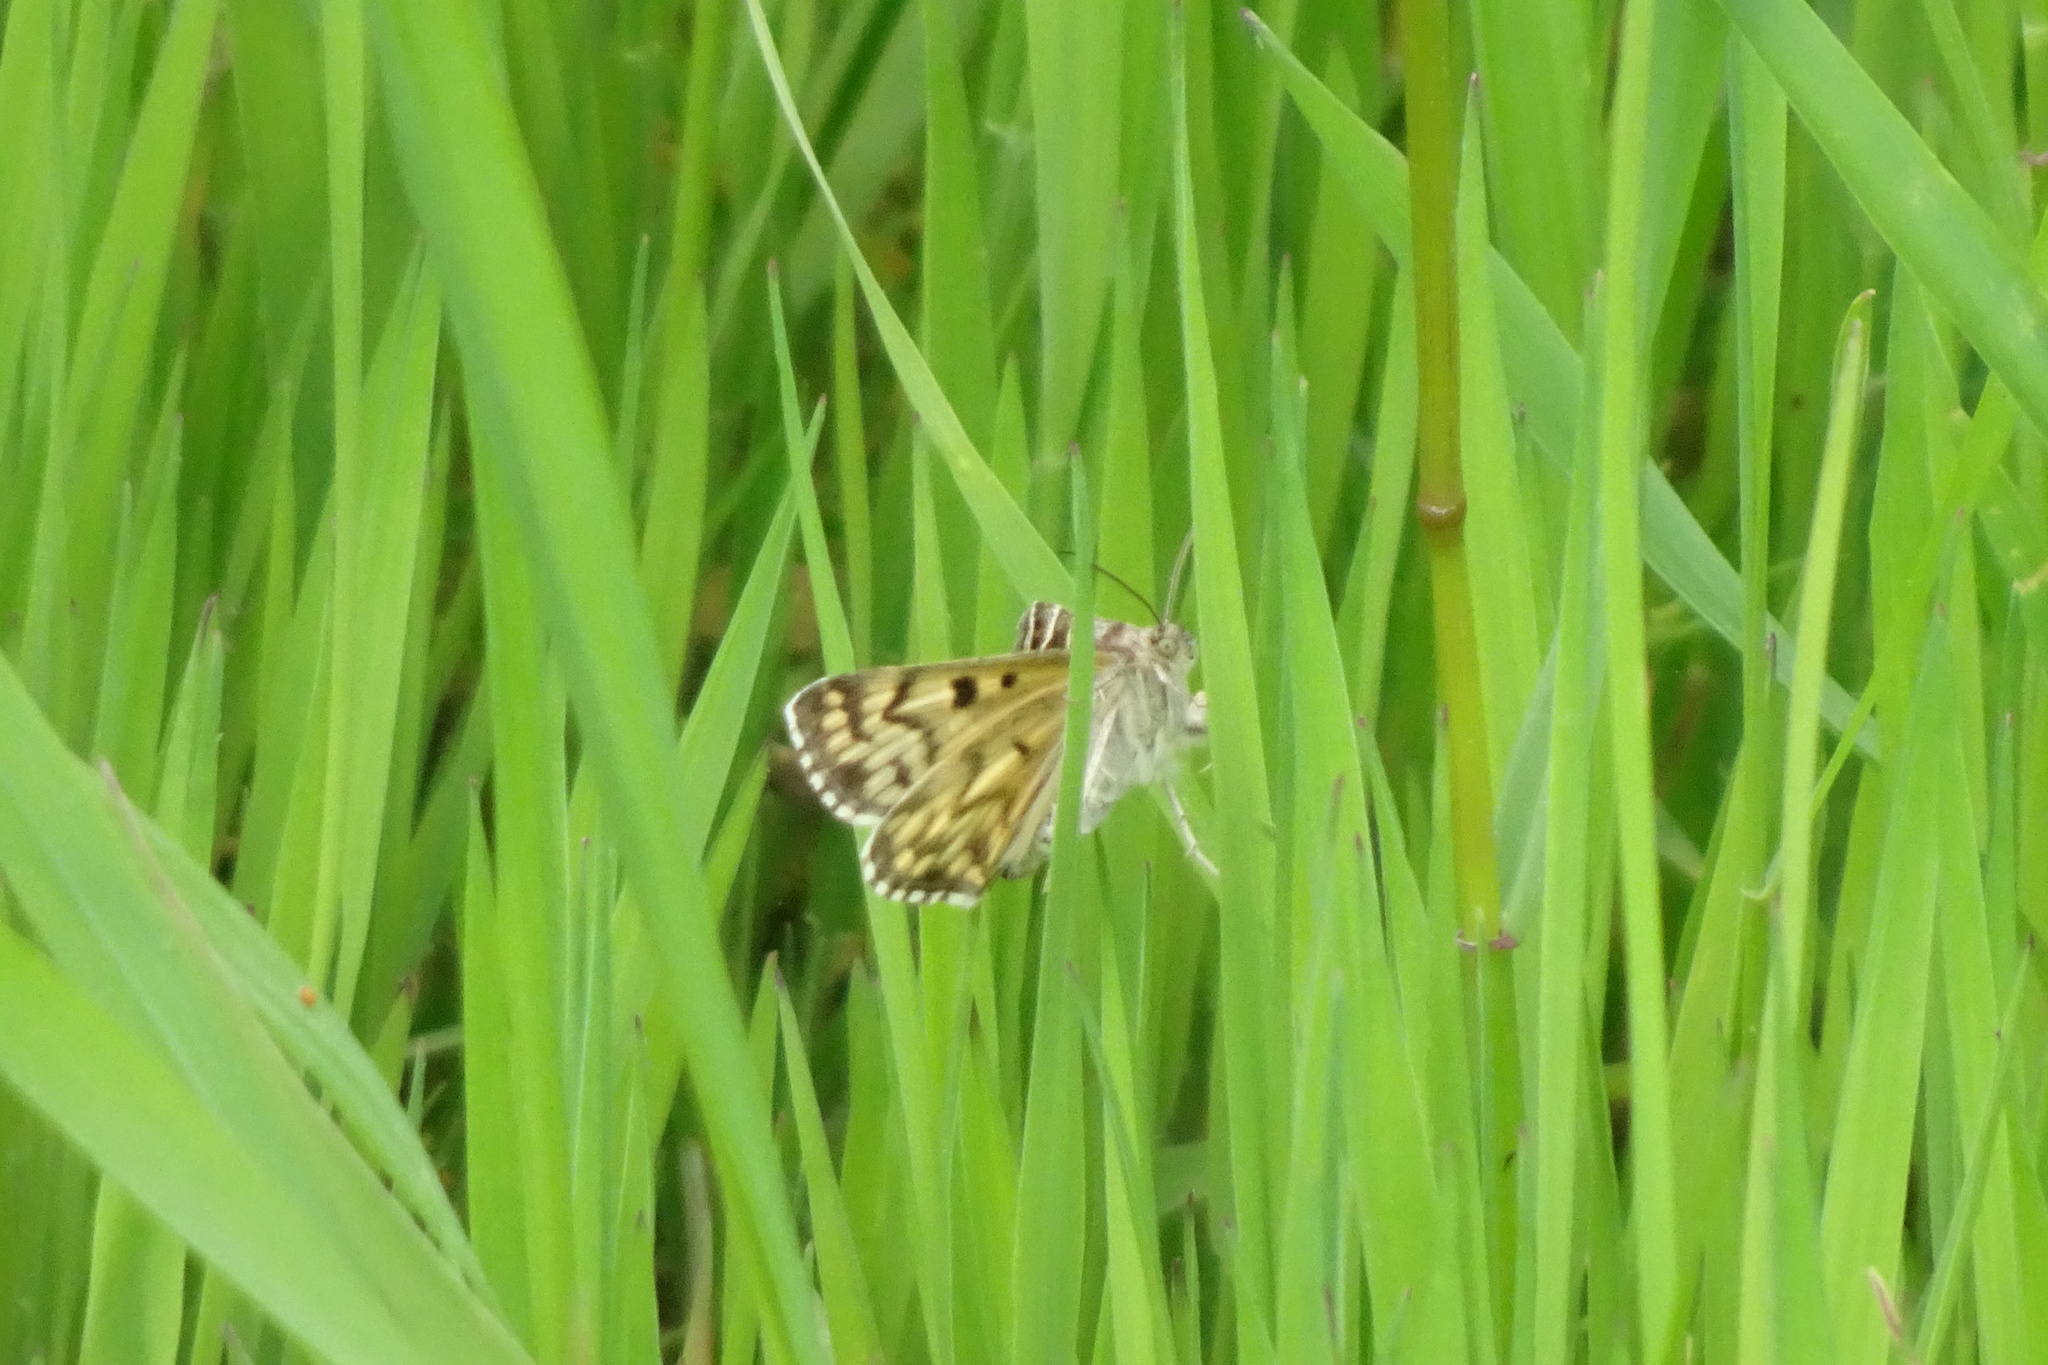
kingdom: Animalia
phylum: Arthropoda
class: Insecta
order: Lepidoptera
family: Erebidae
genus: Callistege
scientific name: Callistege mi
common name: Mother shipton
